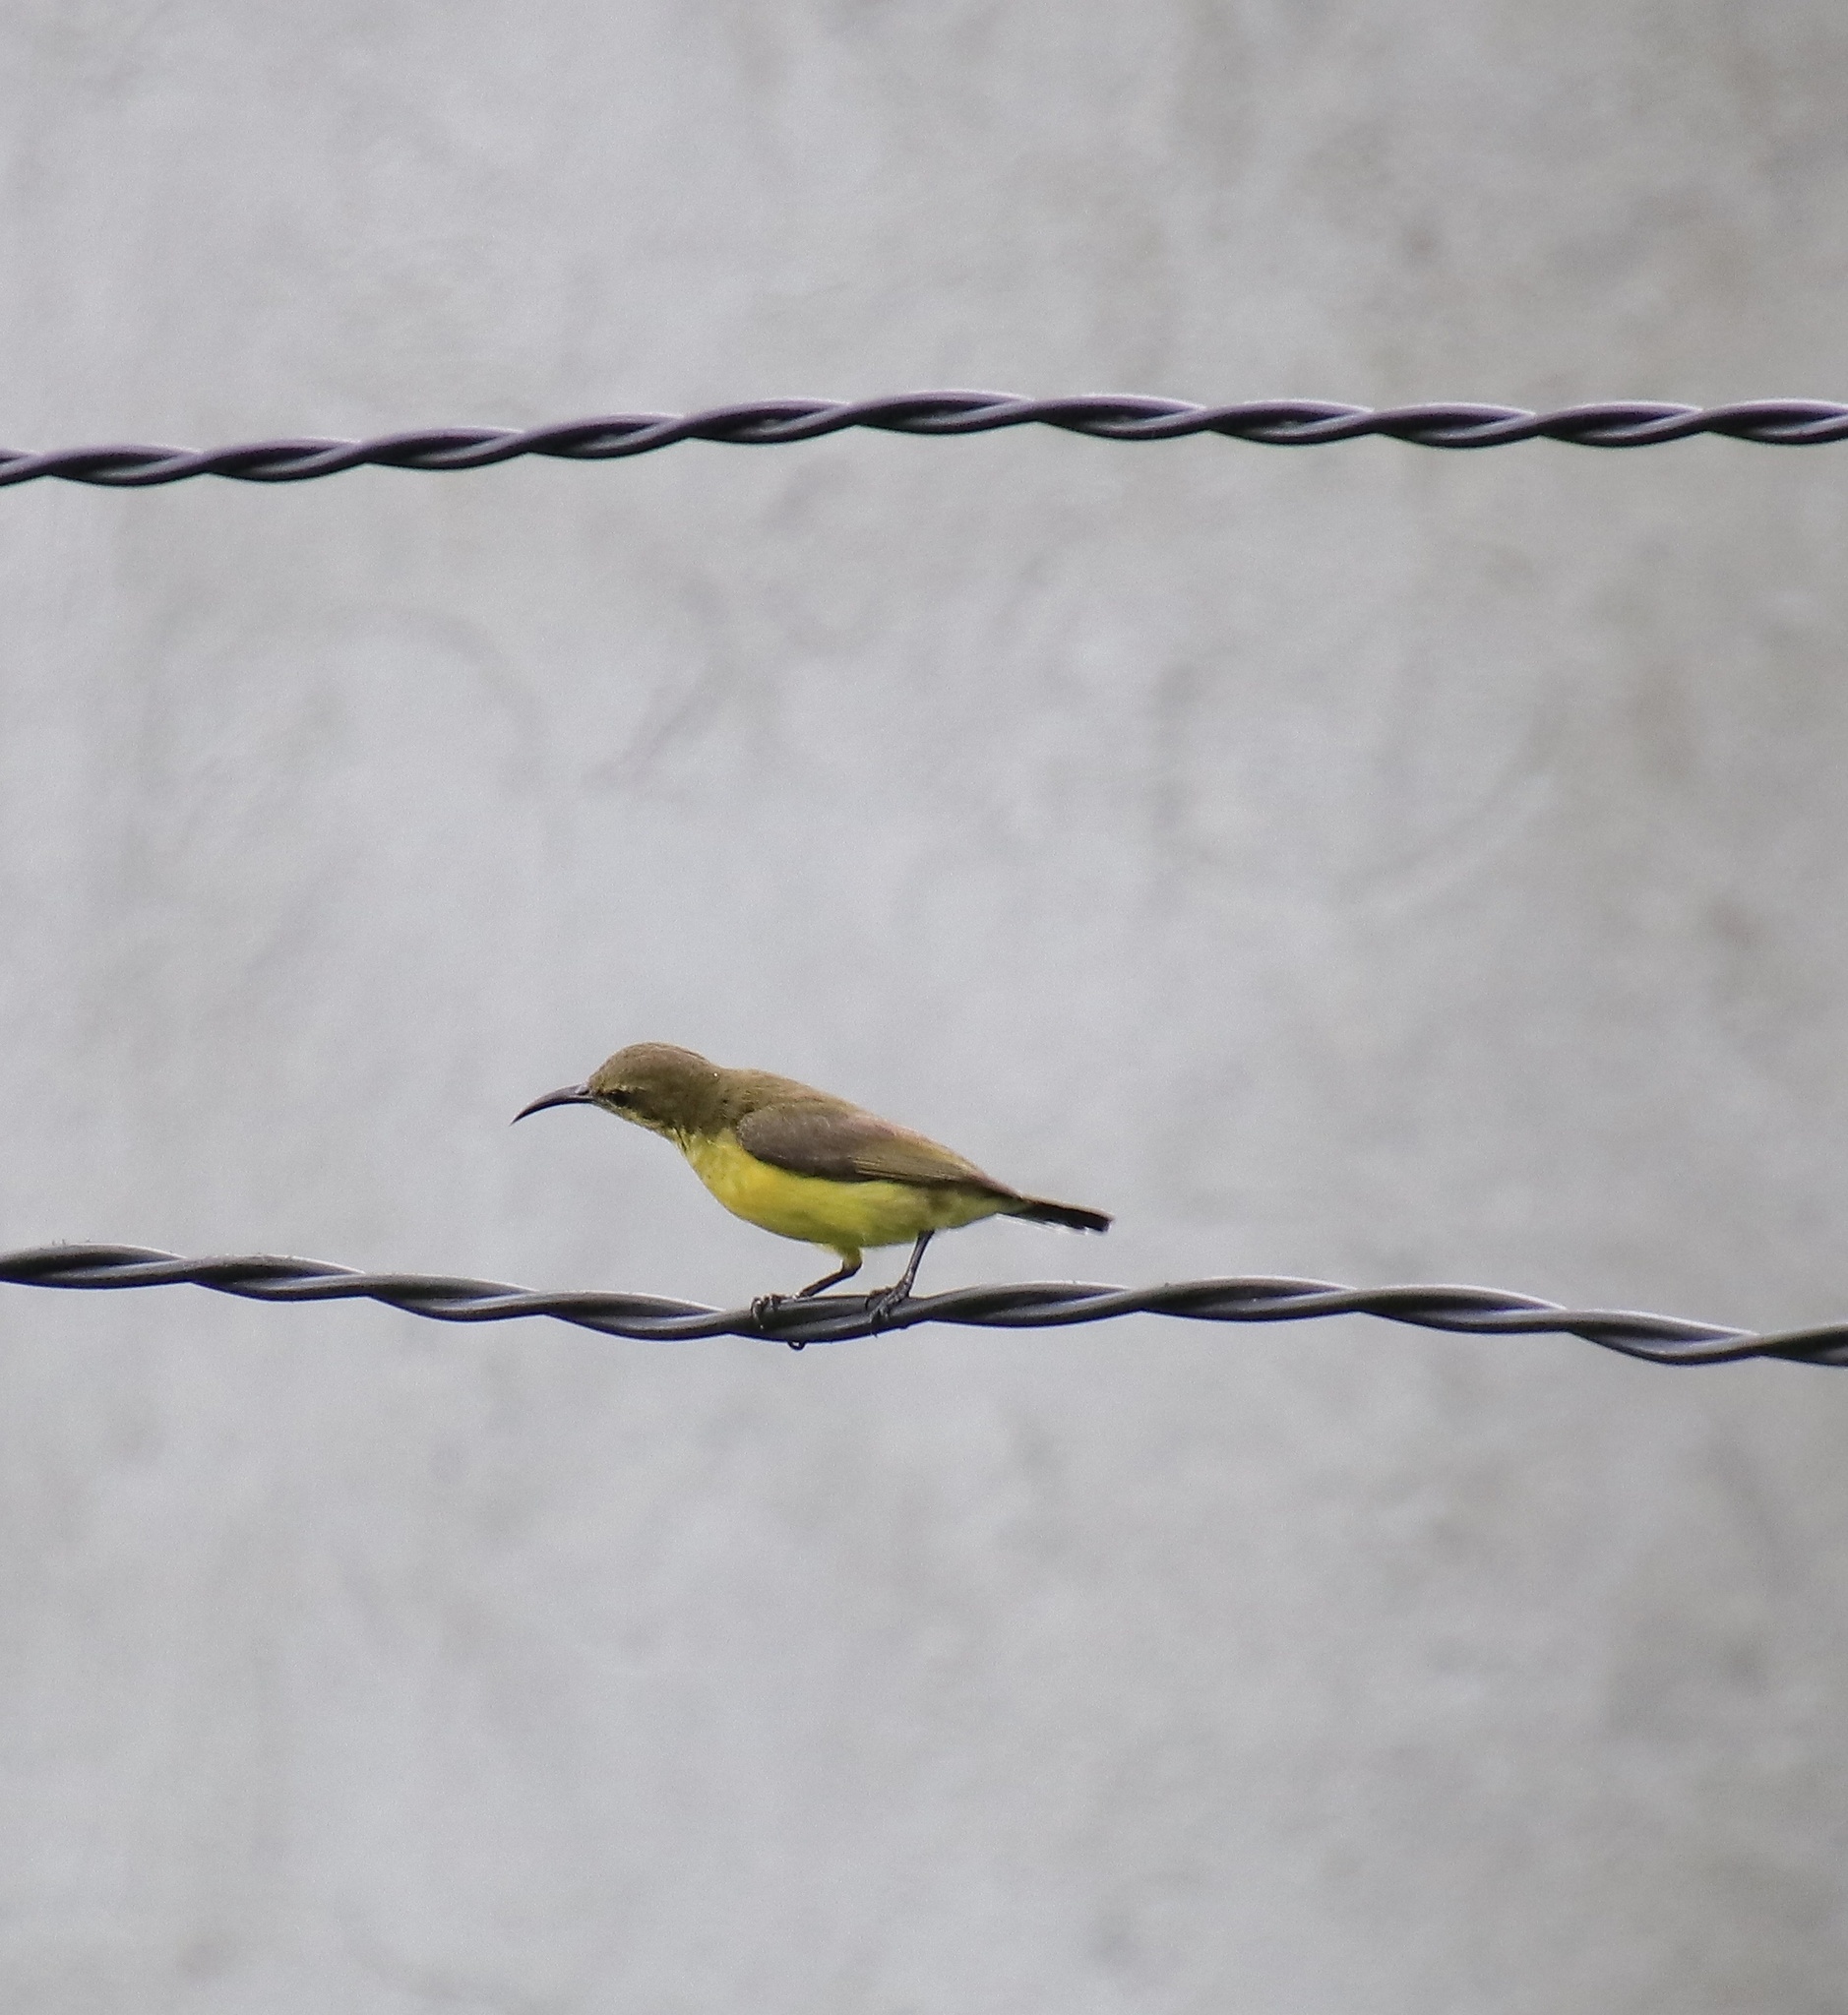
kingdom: Animalia
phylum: Chordata
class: Aves
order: Passeriformes
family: Nectariniidae
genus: Cinnyris
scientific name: Cinnyris jugularis
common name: Olive-backed sunbird
